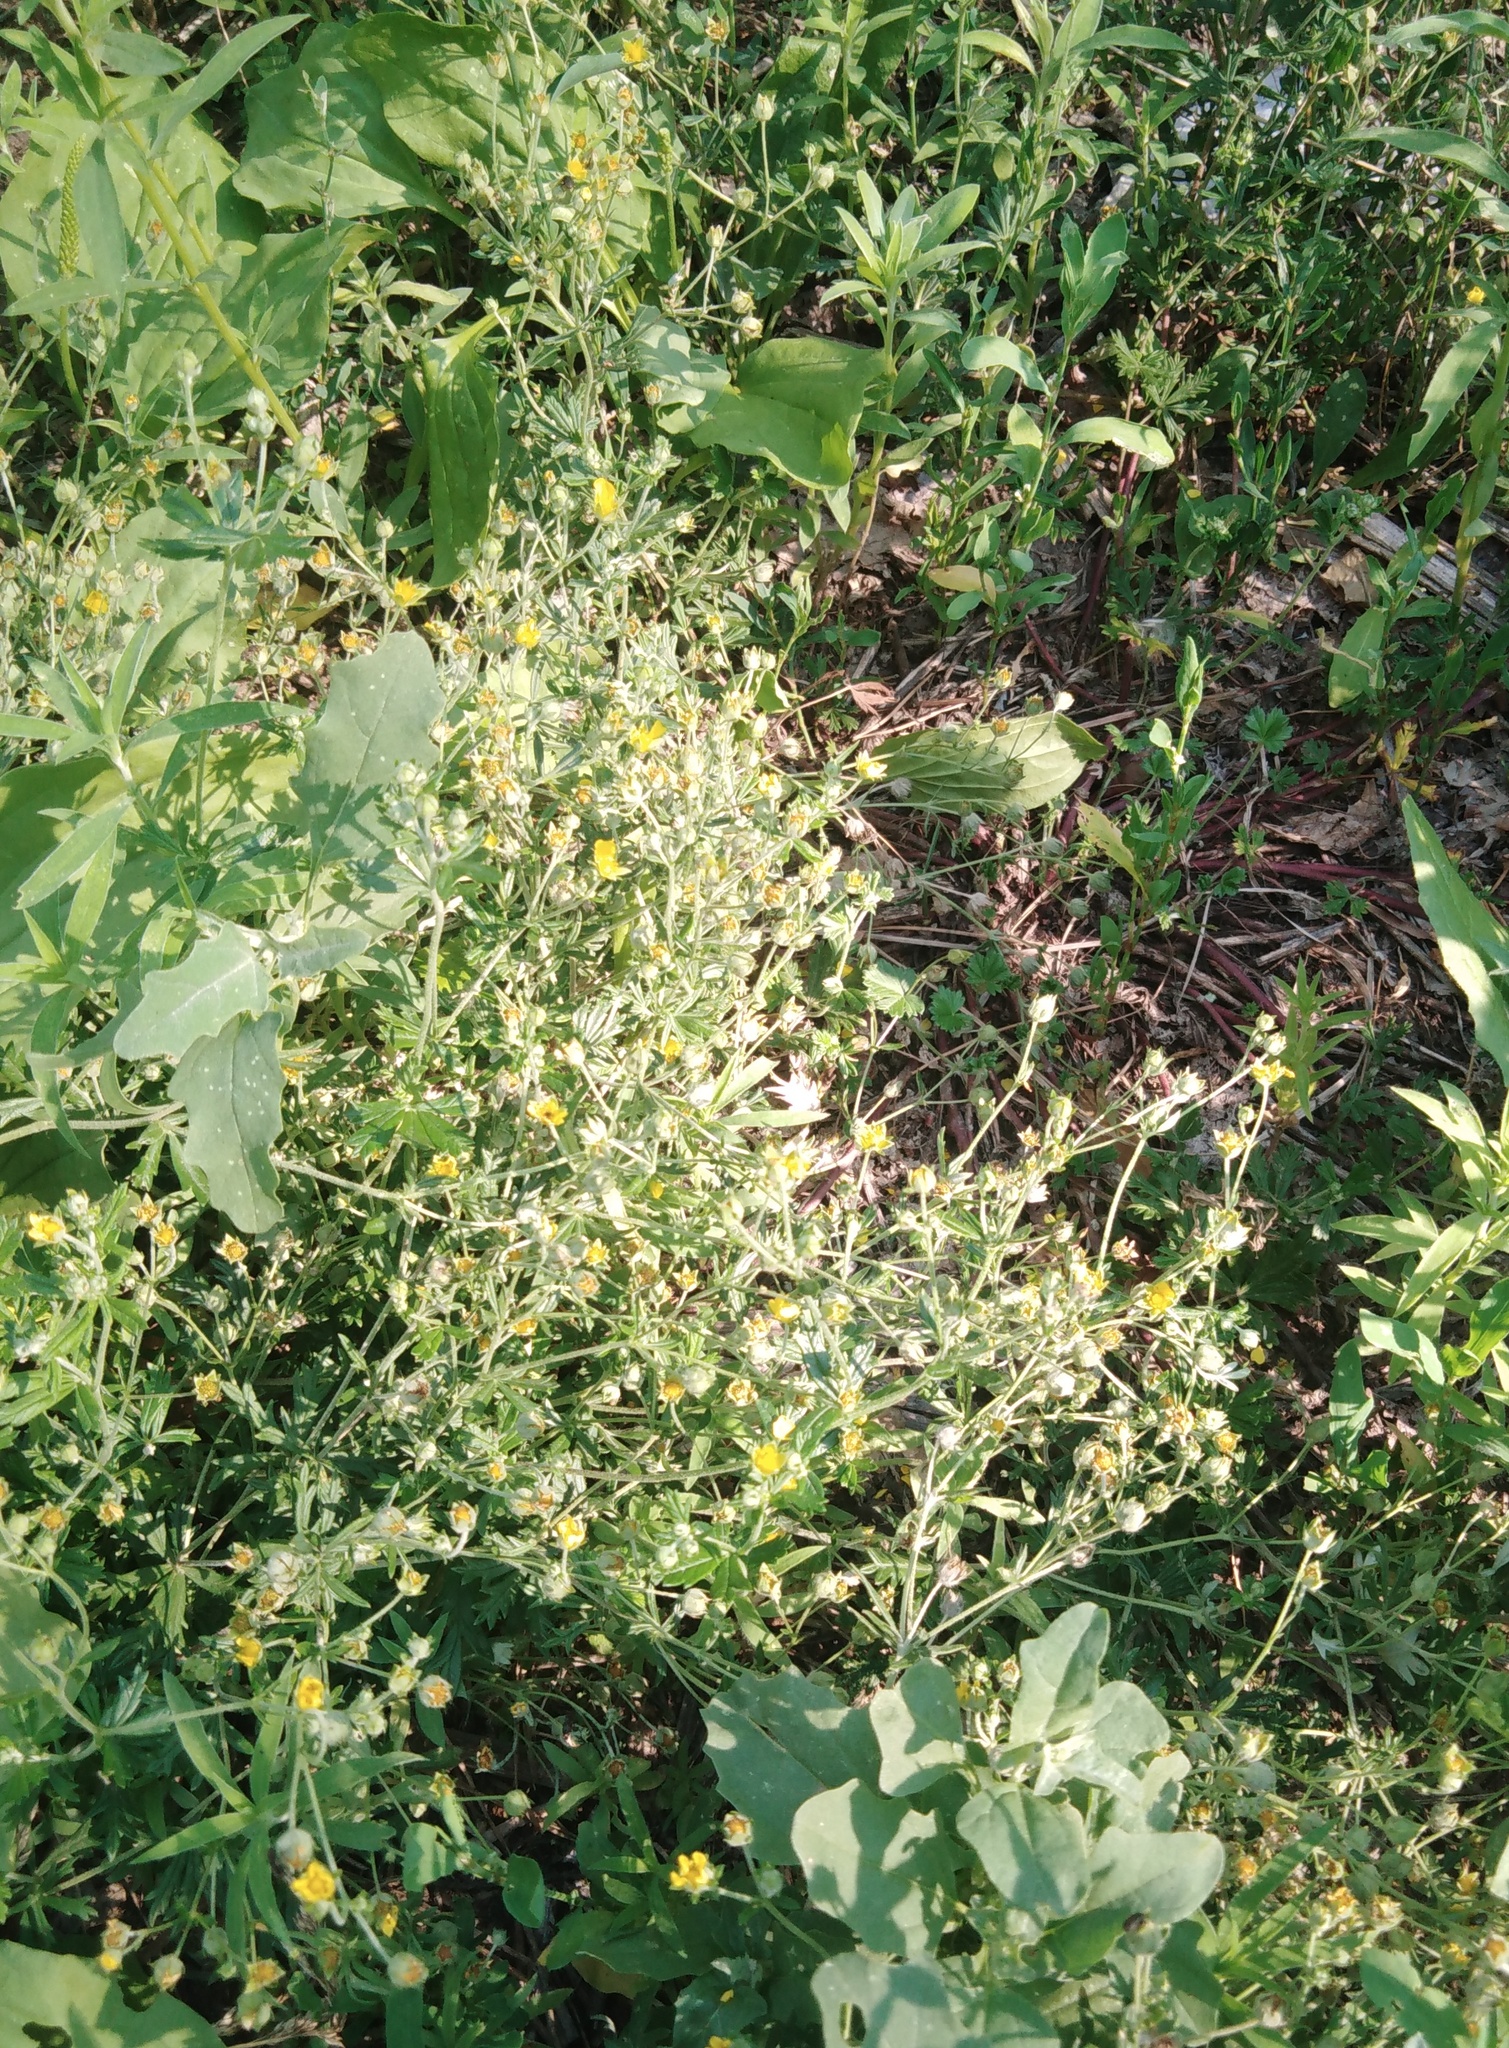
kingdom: Plantae
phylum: Tracheophyta
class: Magnoliopsida
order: Rosales
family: Rosaceae
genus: Potentilla
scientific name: Potentilla argentea
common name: Hoary cinquefoil
